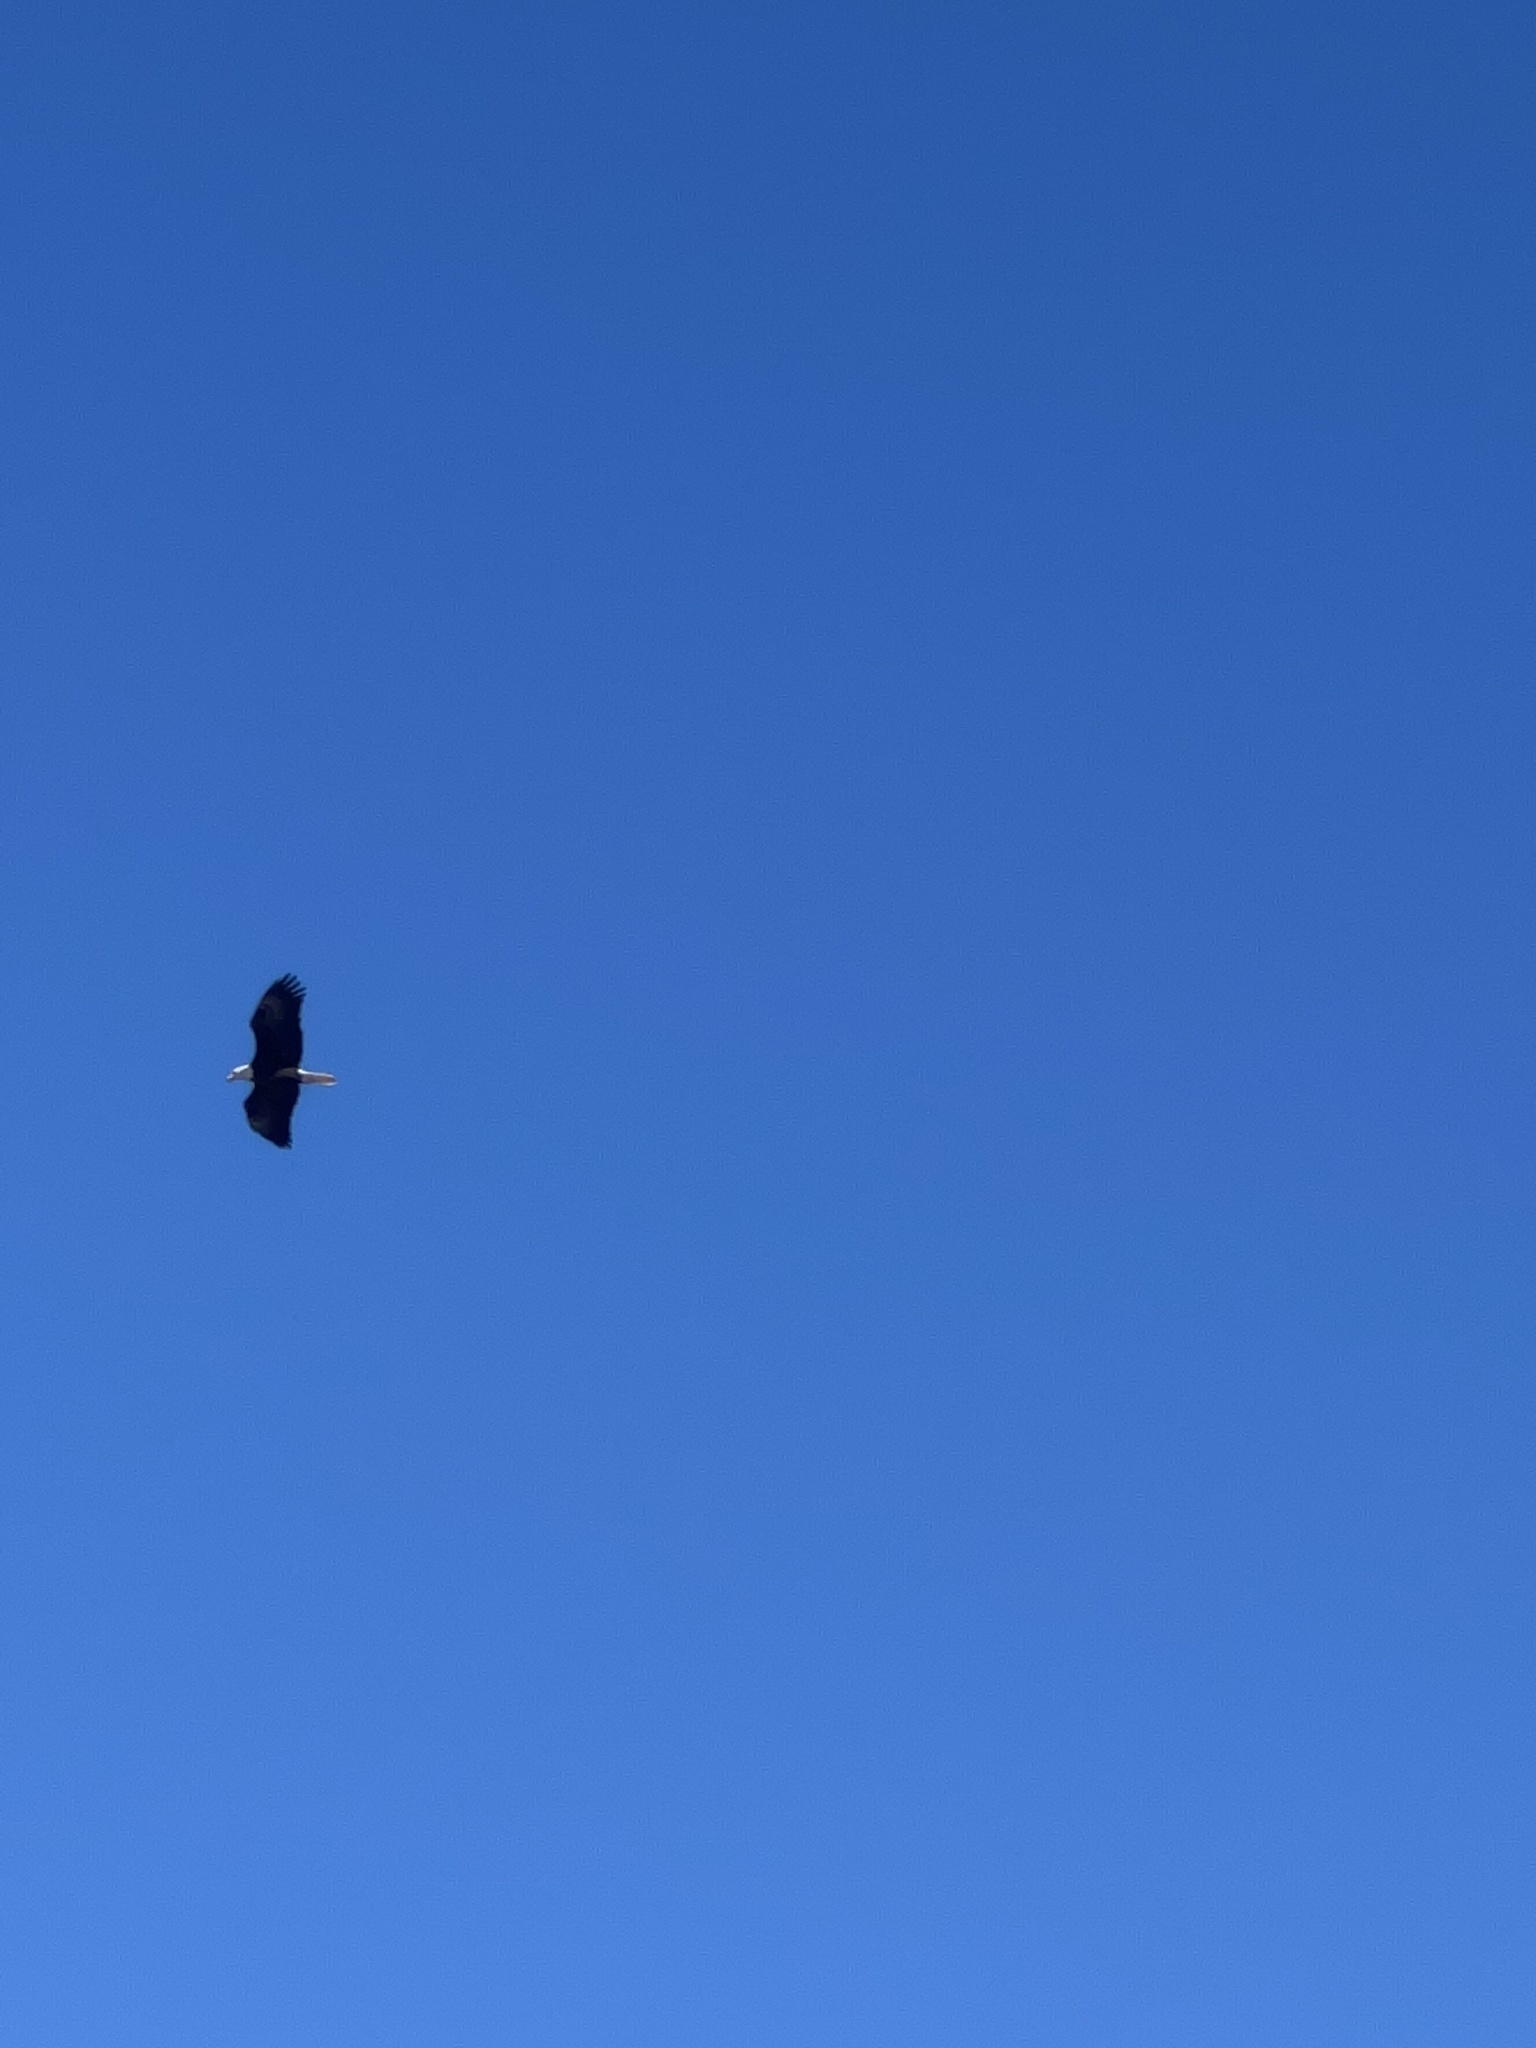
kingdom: Animalia
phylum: Chordata
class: Aves
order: Accipitriformes
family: Accipitridae
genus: Haliaeetus
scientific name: Haliaeetus leucocephalus
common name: Bald eagle
